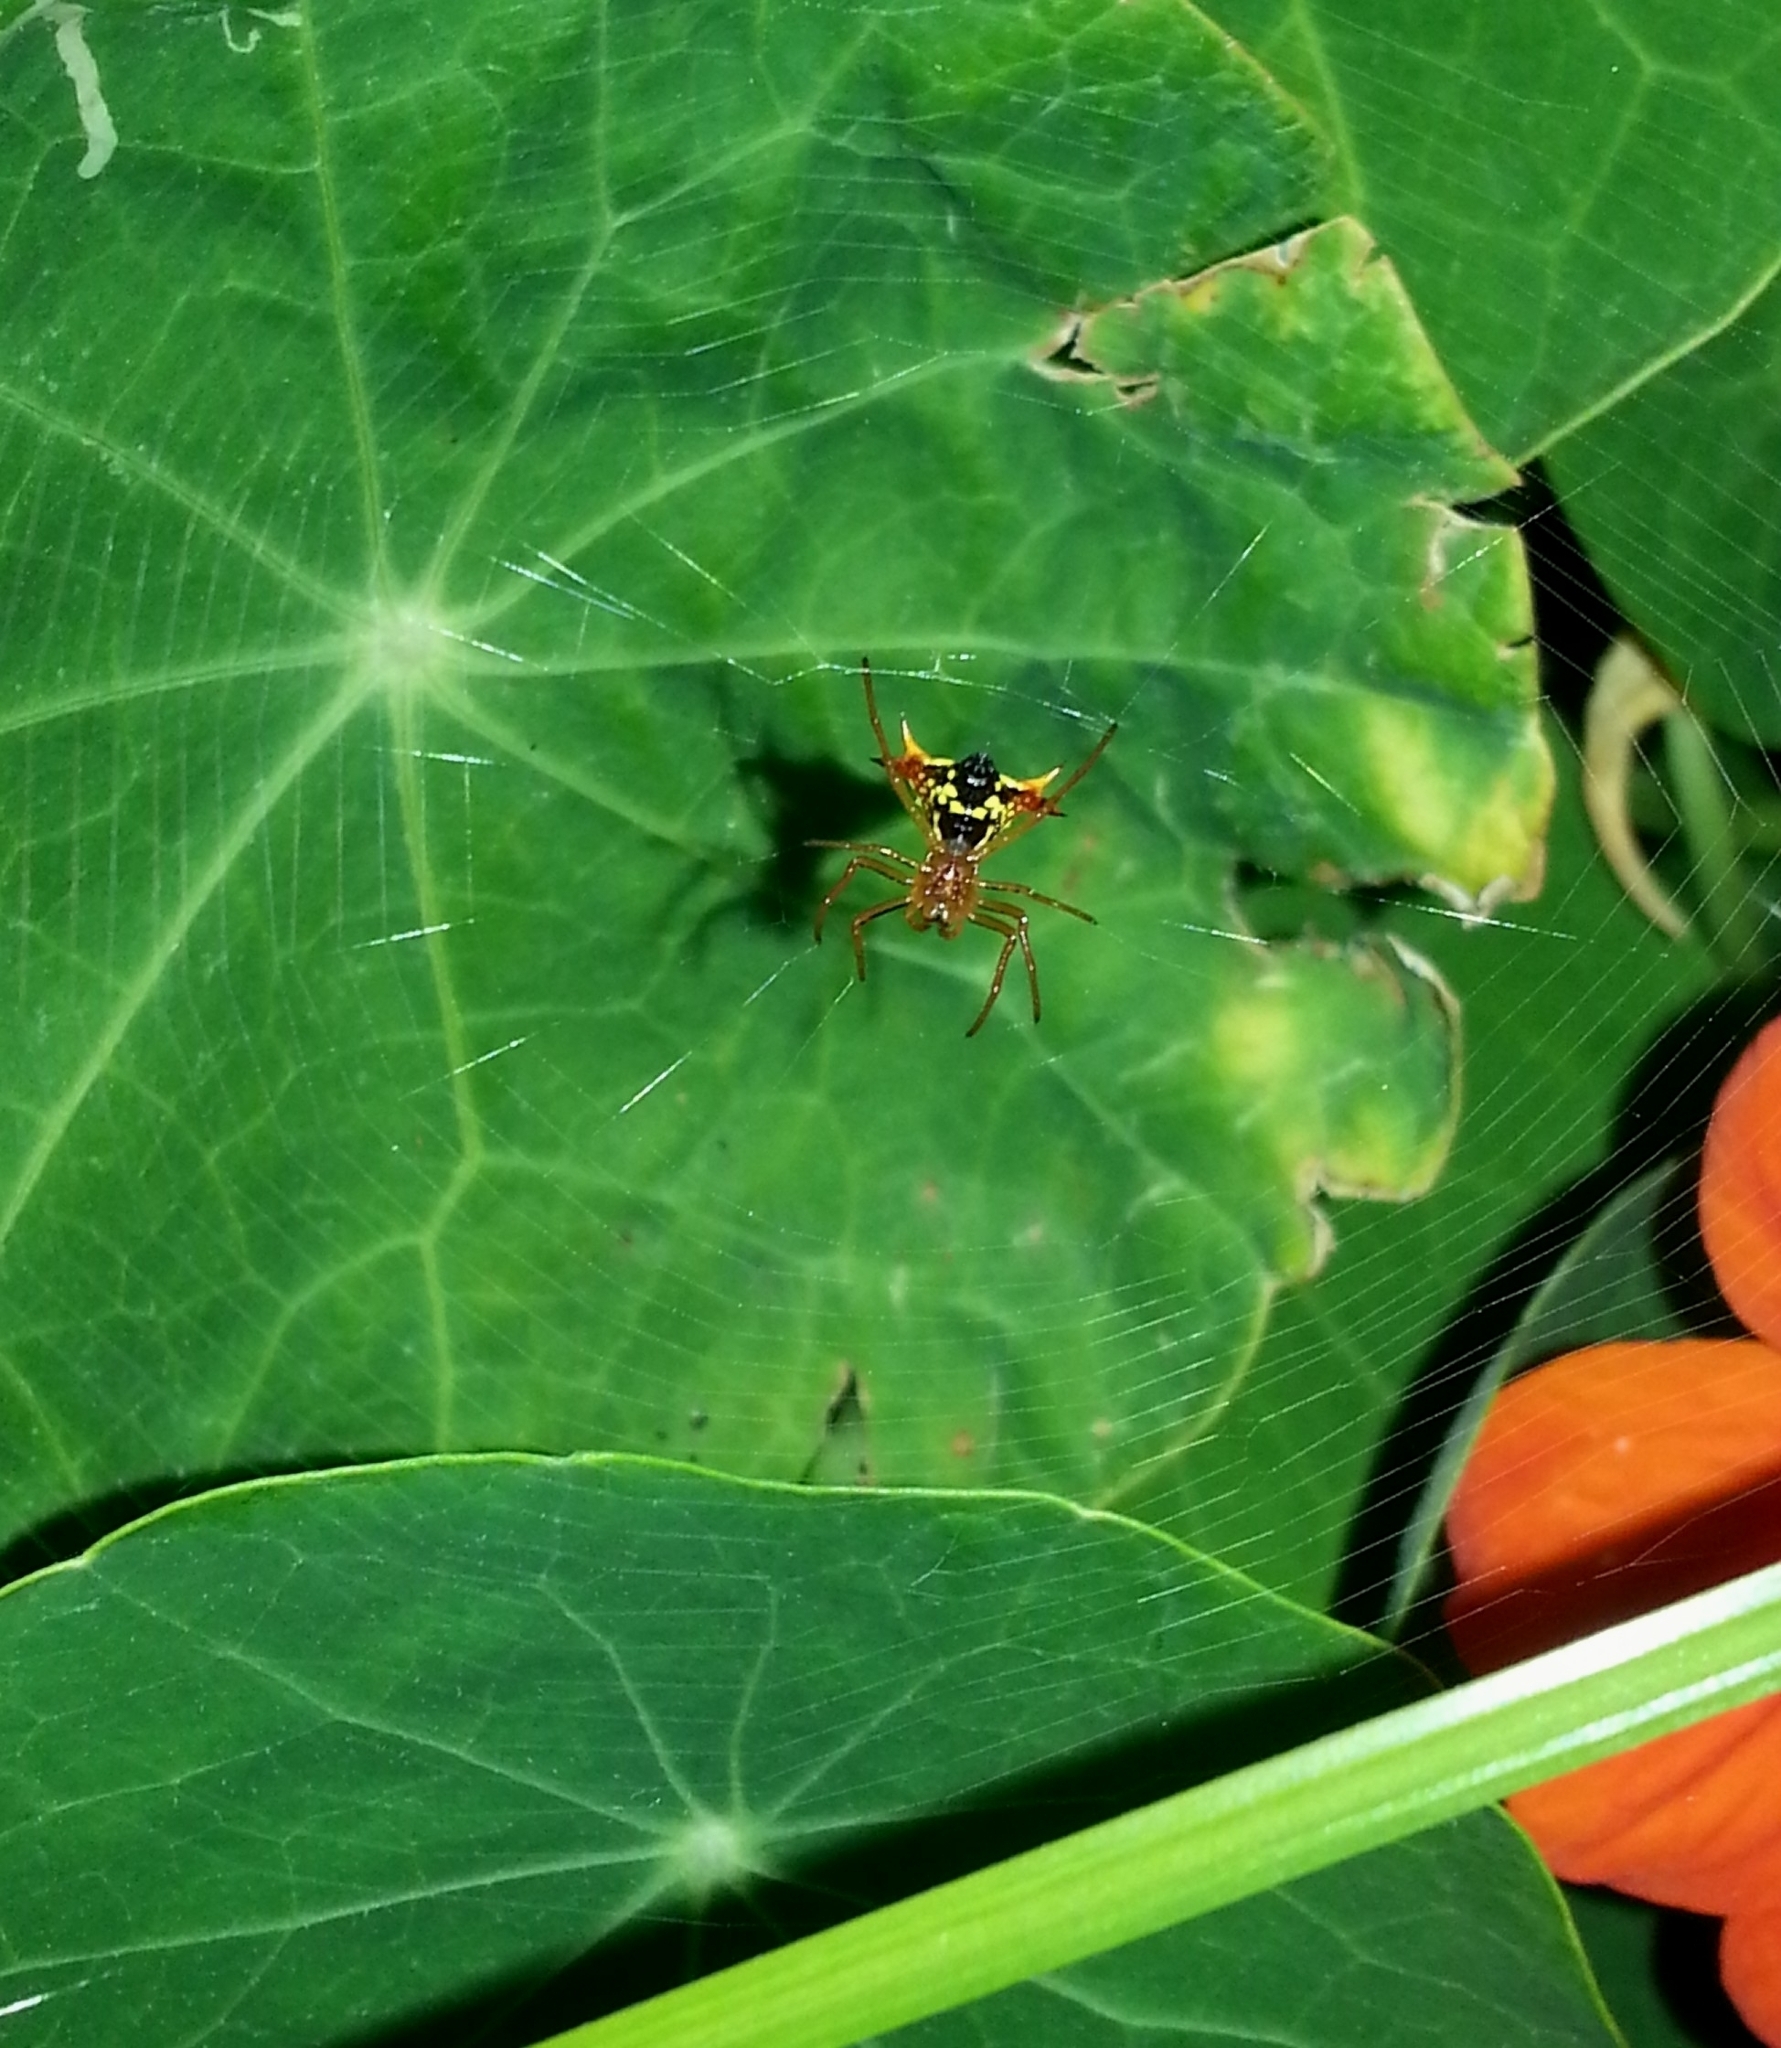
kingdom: Animalia
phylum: Arthropoda
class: Arachnida
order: Araneae
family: Araneidae
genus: Micrathena
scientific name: Micrathena furcata
